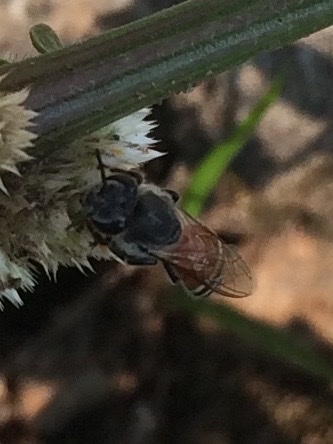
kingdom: Animalia
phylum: Arthropoda
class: Insecta
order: Hymenoptera
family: Apidae
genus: Apis
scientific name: Apis florea
